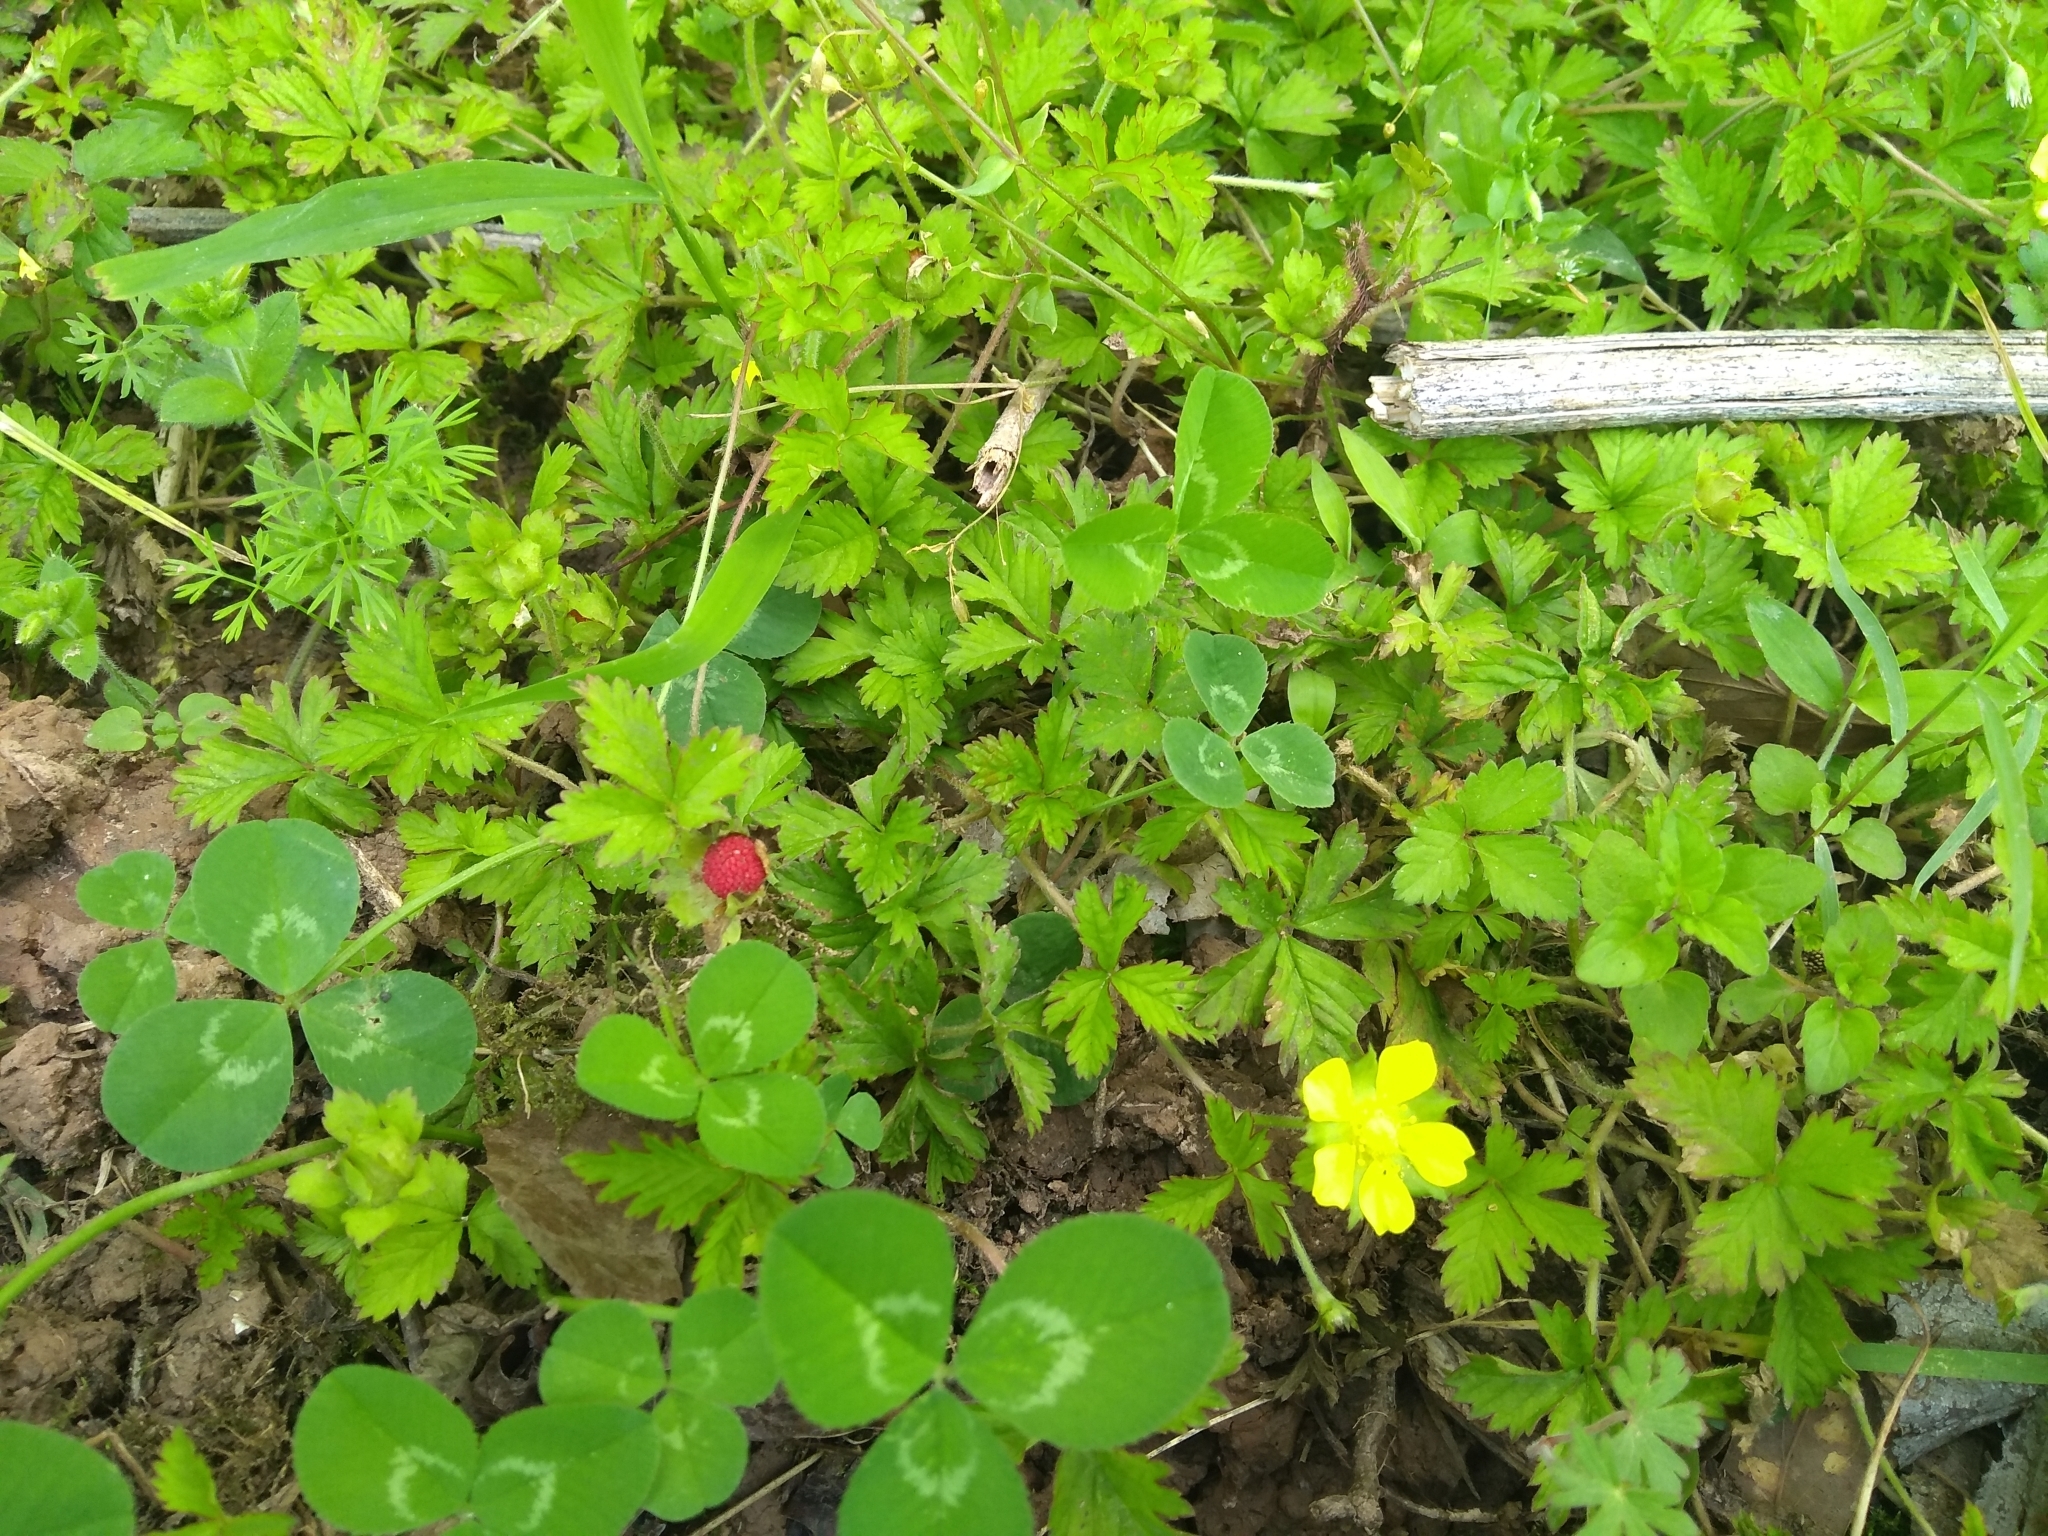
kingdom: Plantae
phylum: Tracheophyta
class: Magnoliopsida
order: Rosales
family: Rosaceae
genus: Potentilla
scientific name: Potentilla indica
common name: Yellow-flowered strawberry
